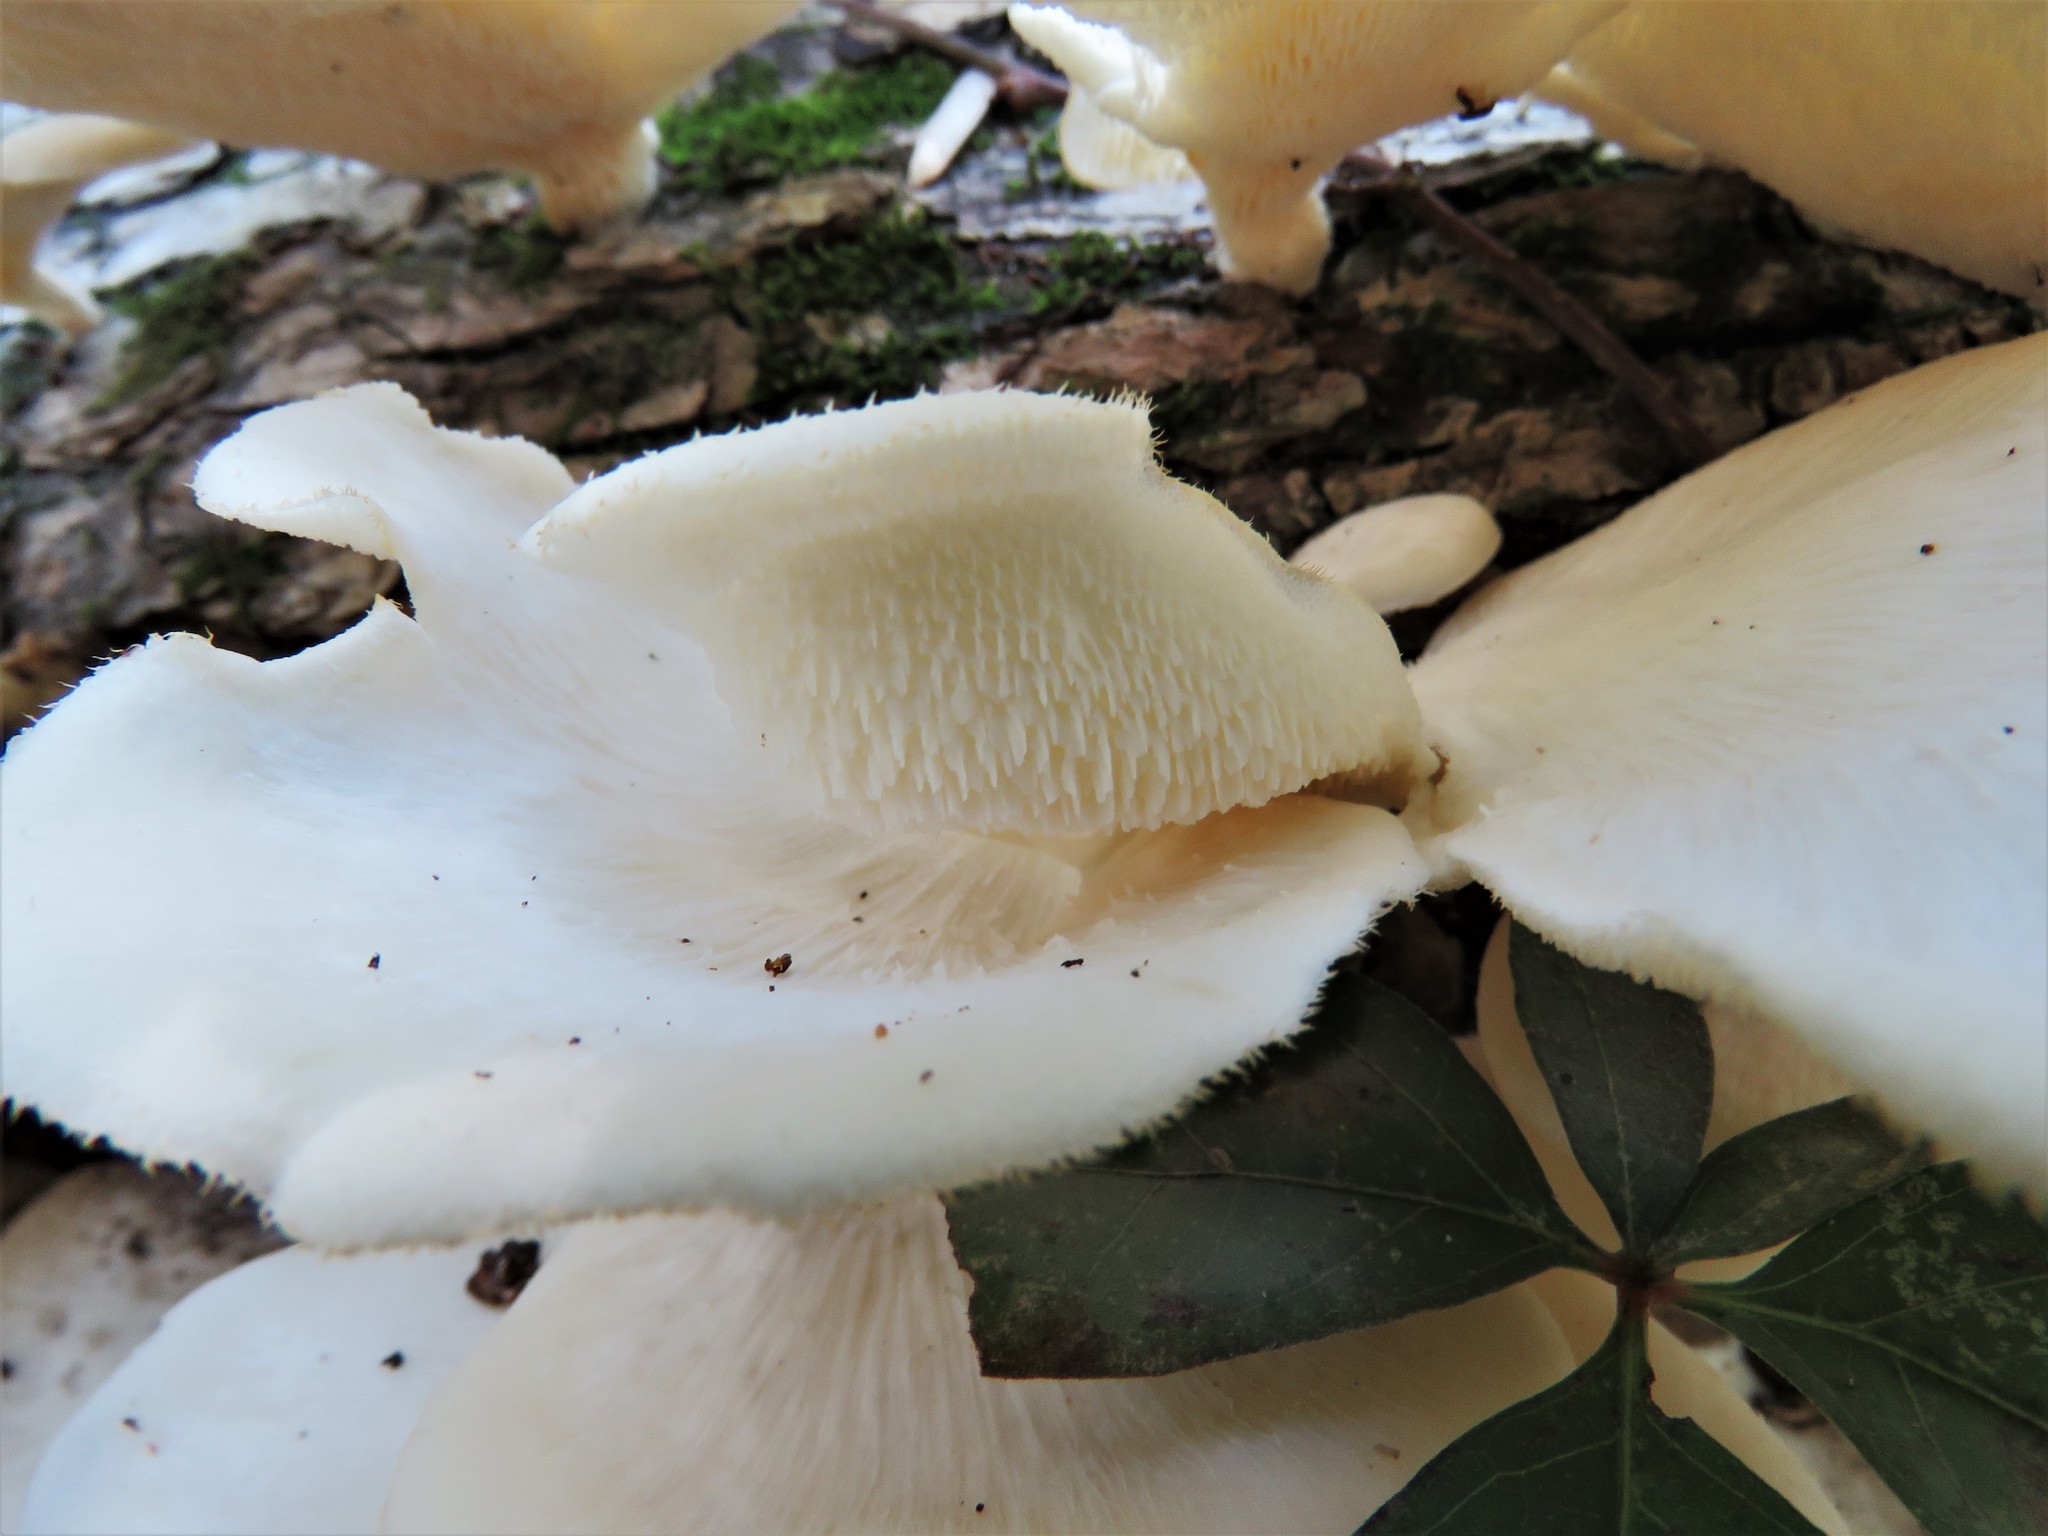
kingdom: Fungi
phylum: Basidiomycota
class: Agaricomycetes
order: Polyporales
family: Polyporaceae
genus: Favolus
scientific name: Favolus tenuiculus
